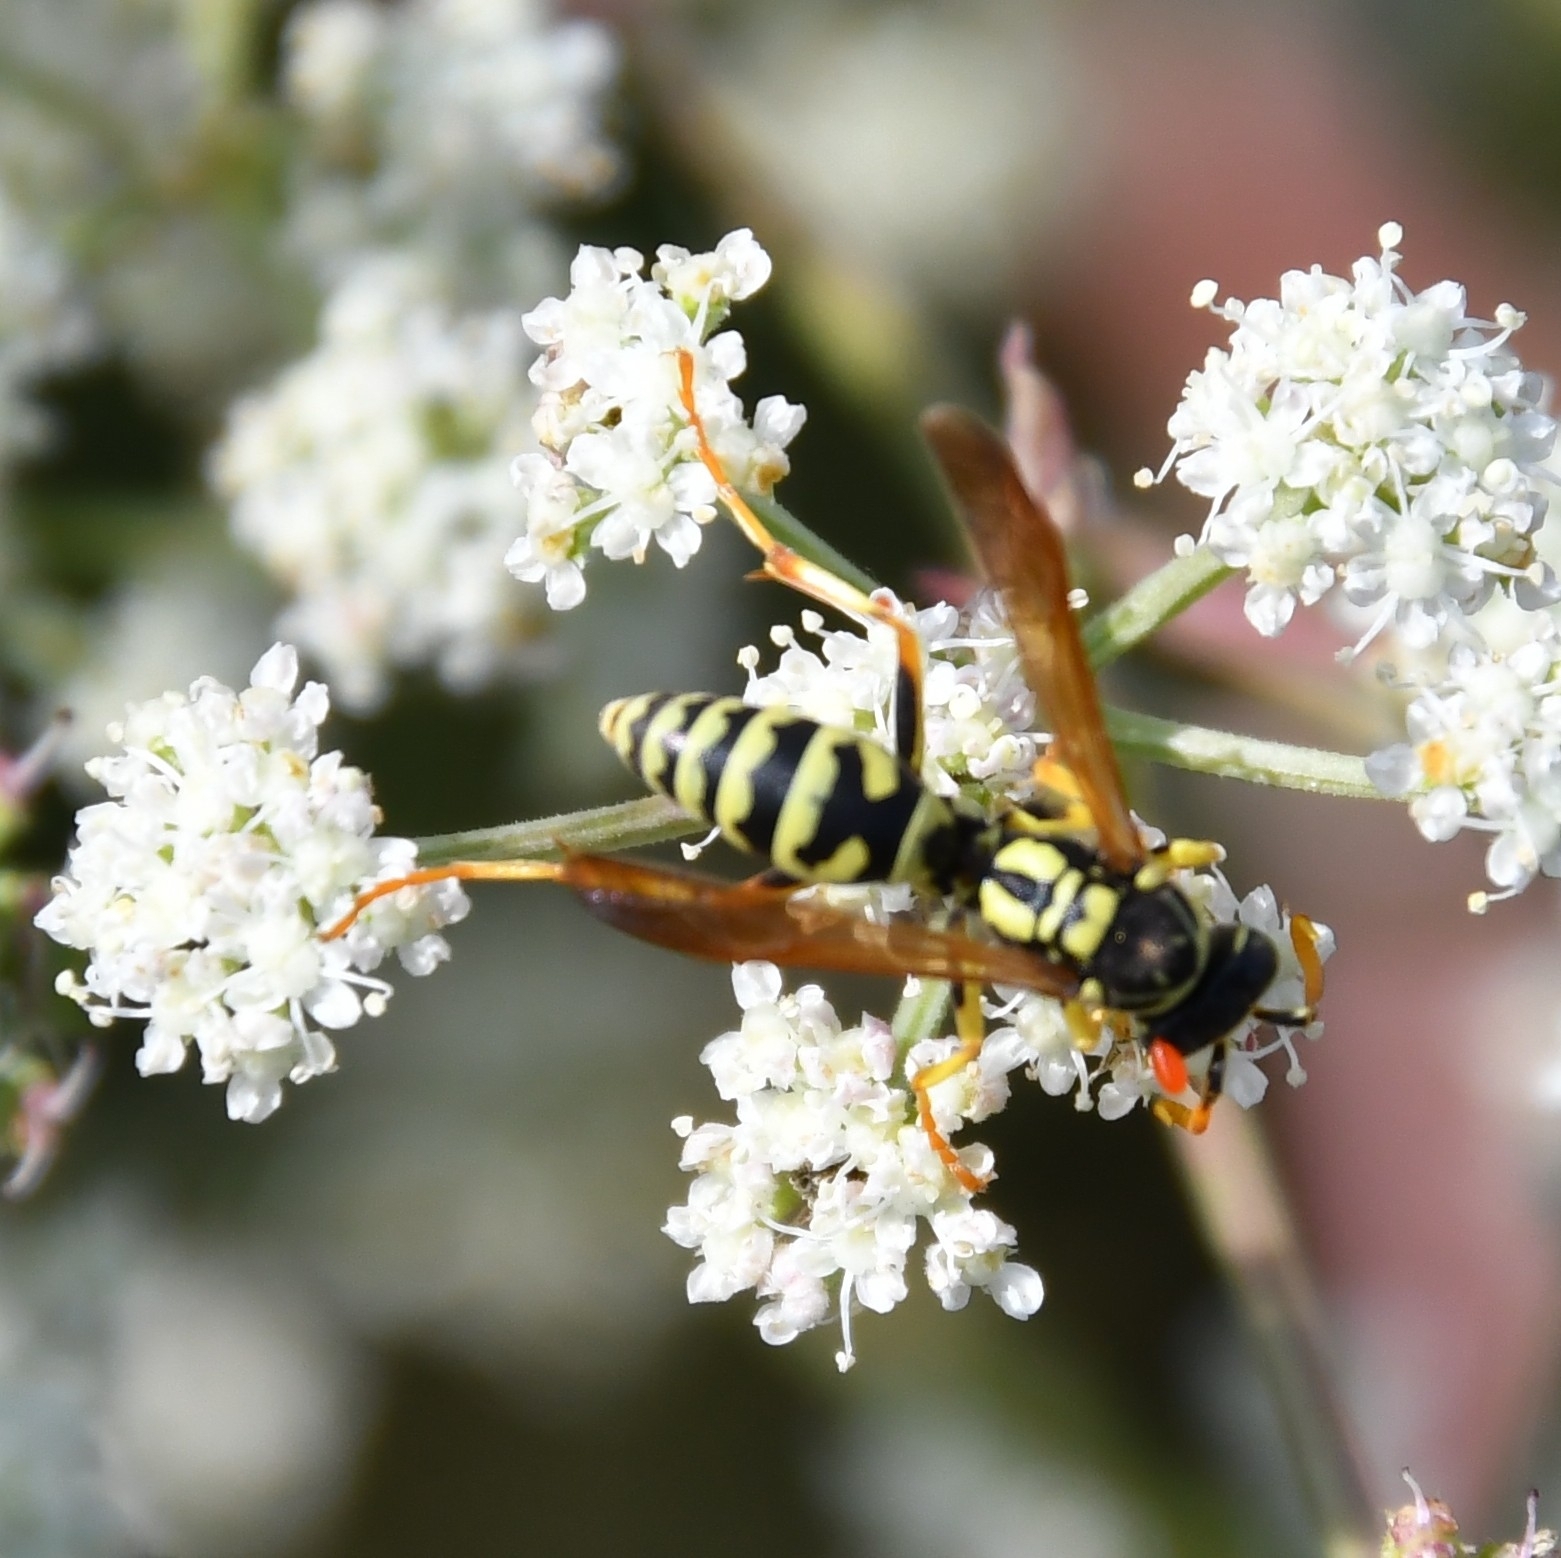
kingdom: Animalia
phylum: Arthropoda
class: Insecta
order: Hymenoptera
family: Eumenidae
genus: Polistes
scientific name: Polistes dominula
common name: Paper wasp
